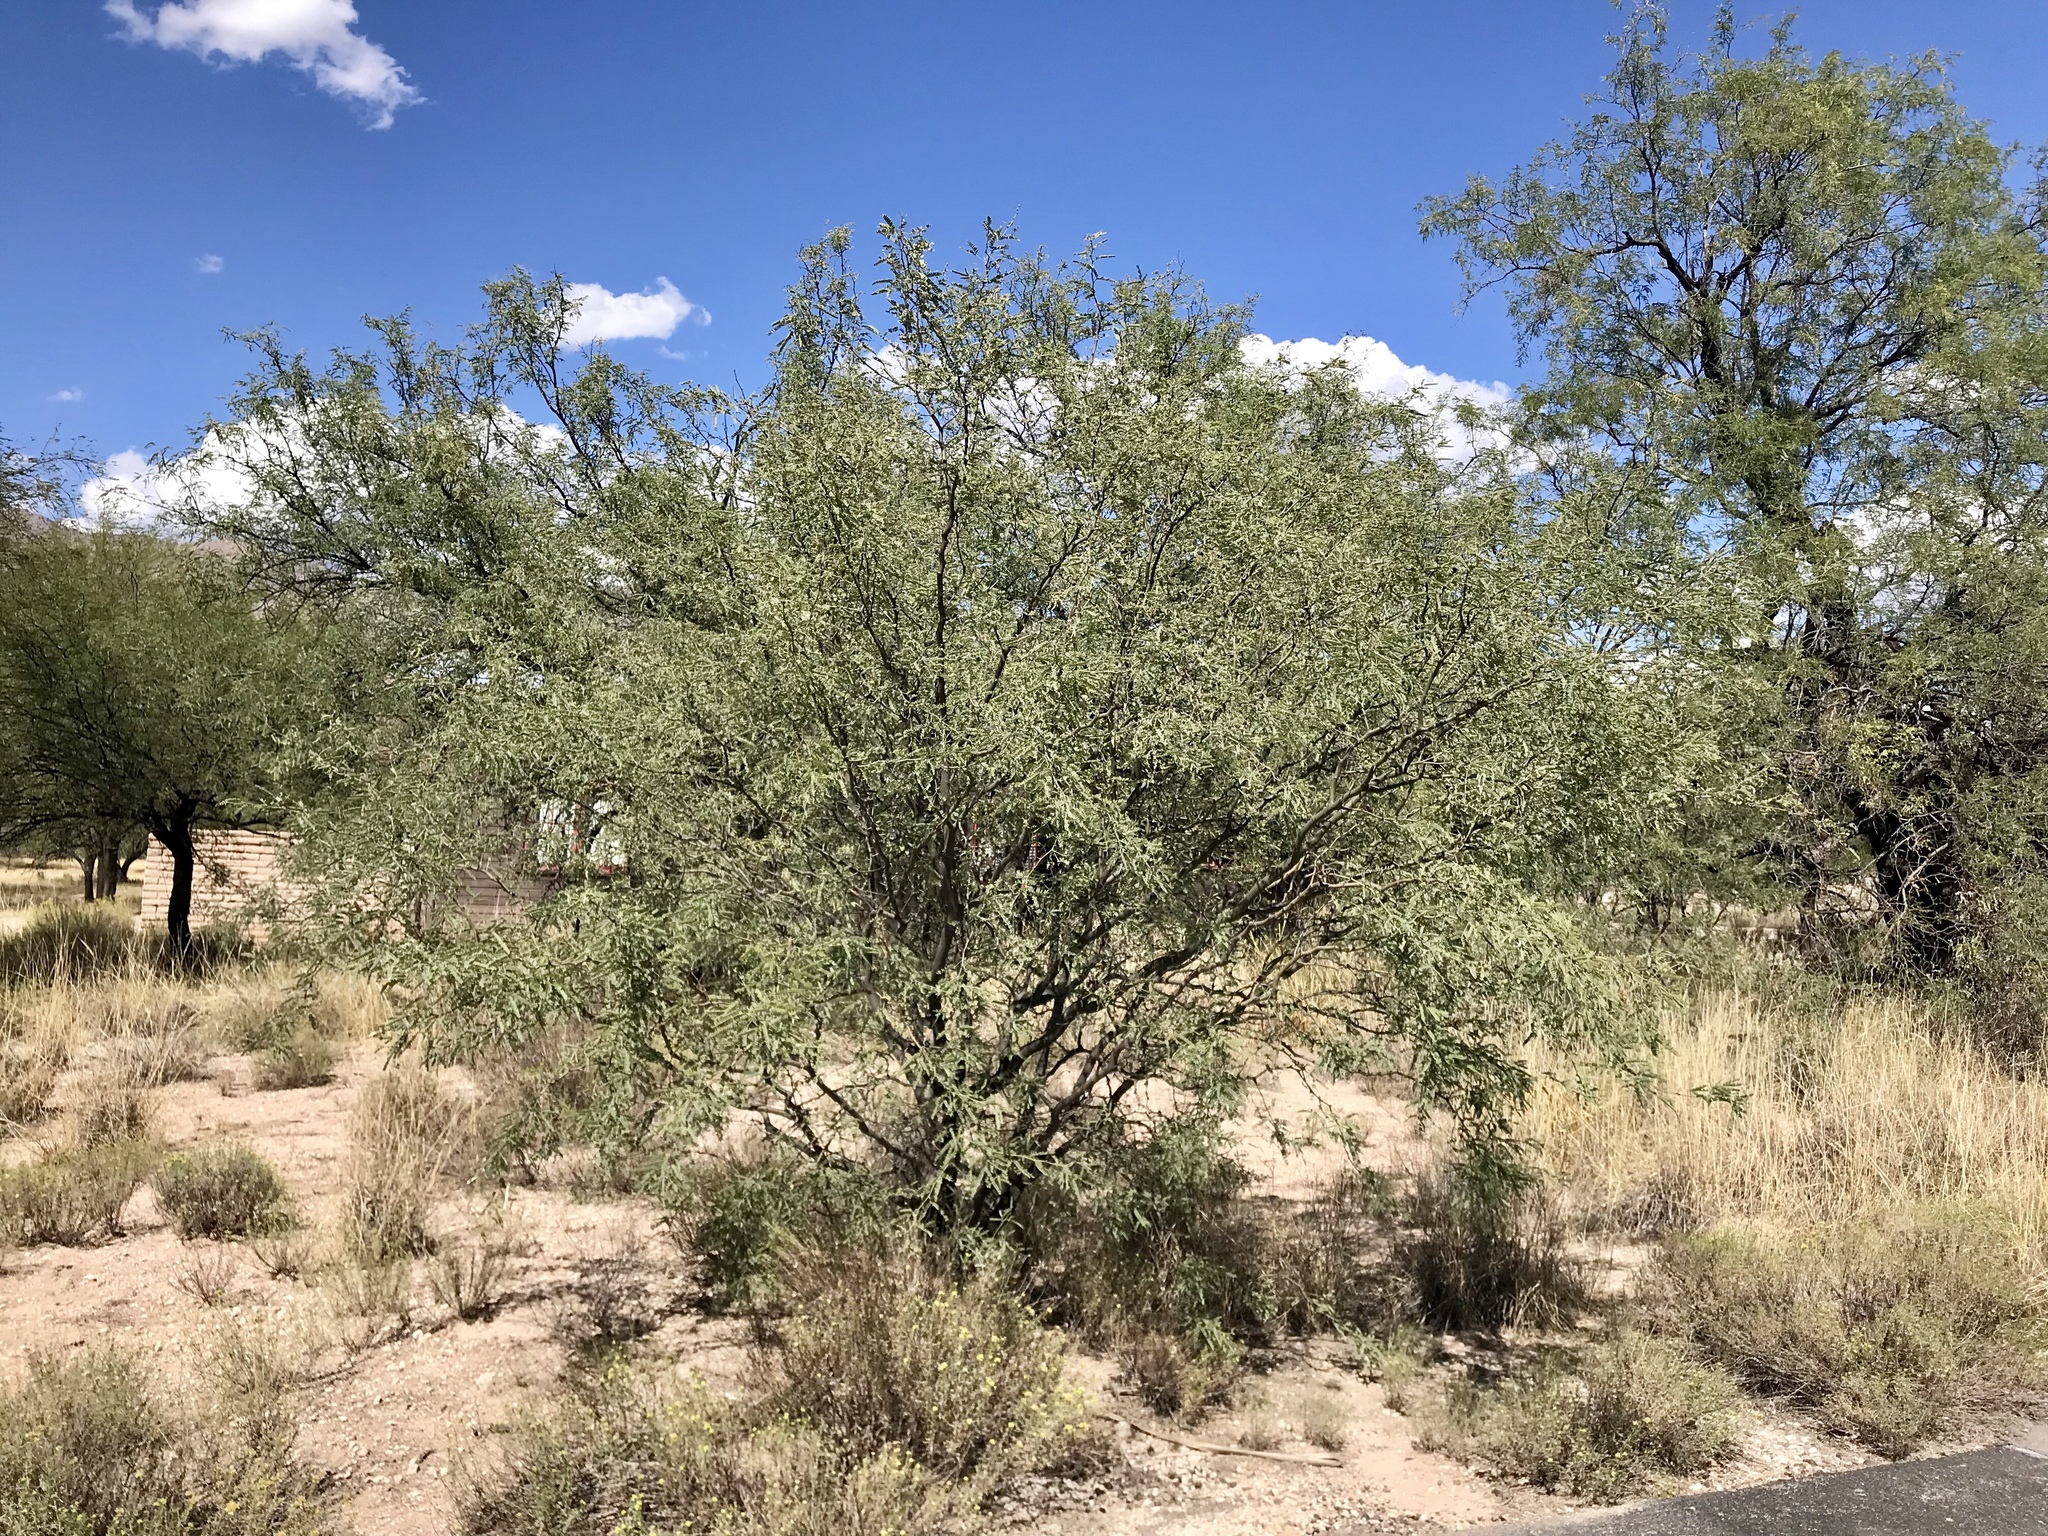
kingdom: Plantae
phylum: Tracheophyta
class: Magnoliopsida
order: Fabales
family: Fabaceae
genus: Prosopis
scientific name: Prosopis velutina
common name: Velvet mesquite
